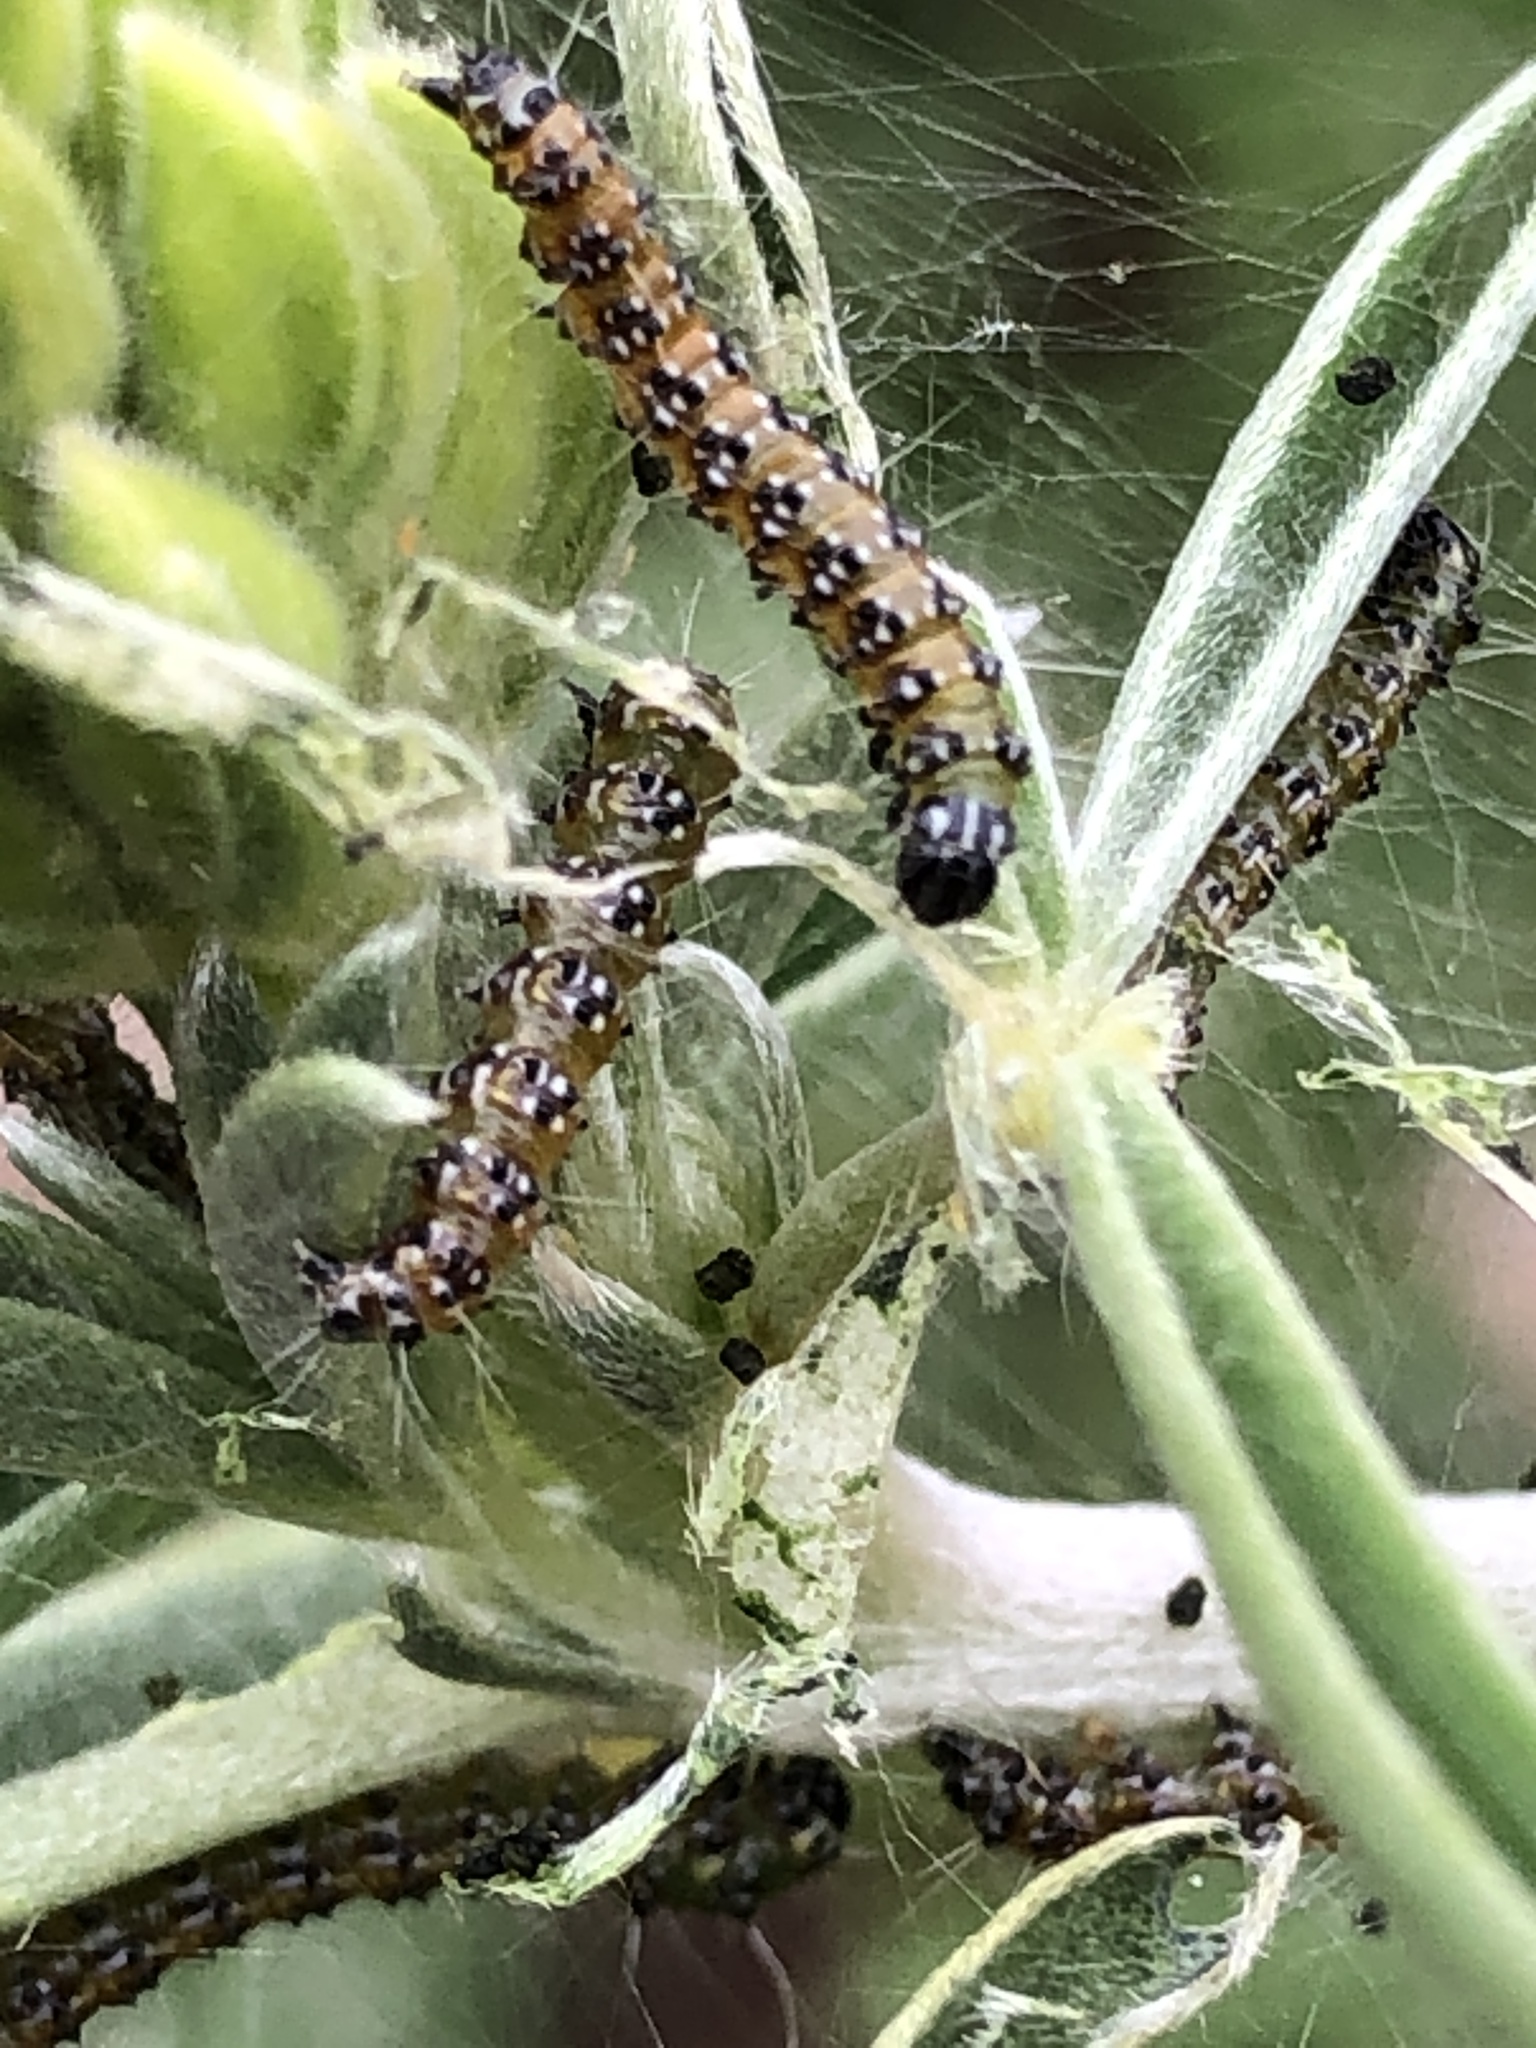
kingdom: Animalia
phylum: Arthropoda
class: Insecta
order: Lepidoptera
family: Crambidae
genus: Uresiphita
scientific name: Uresiphita reversalis
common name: Genista broom moth
